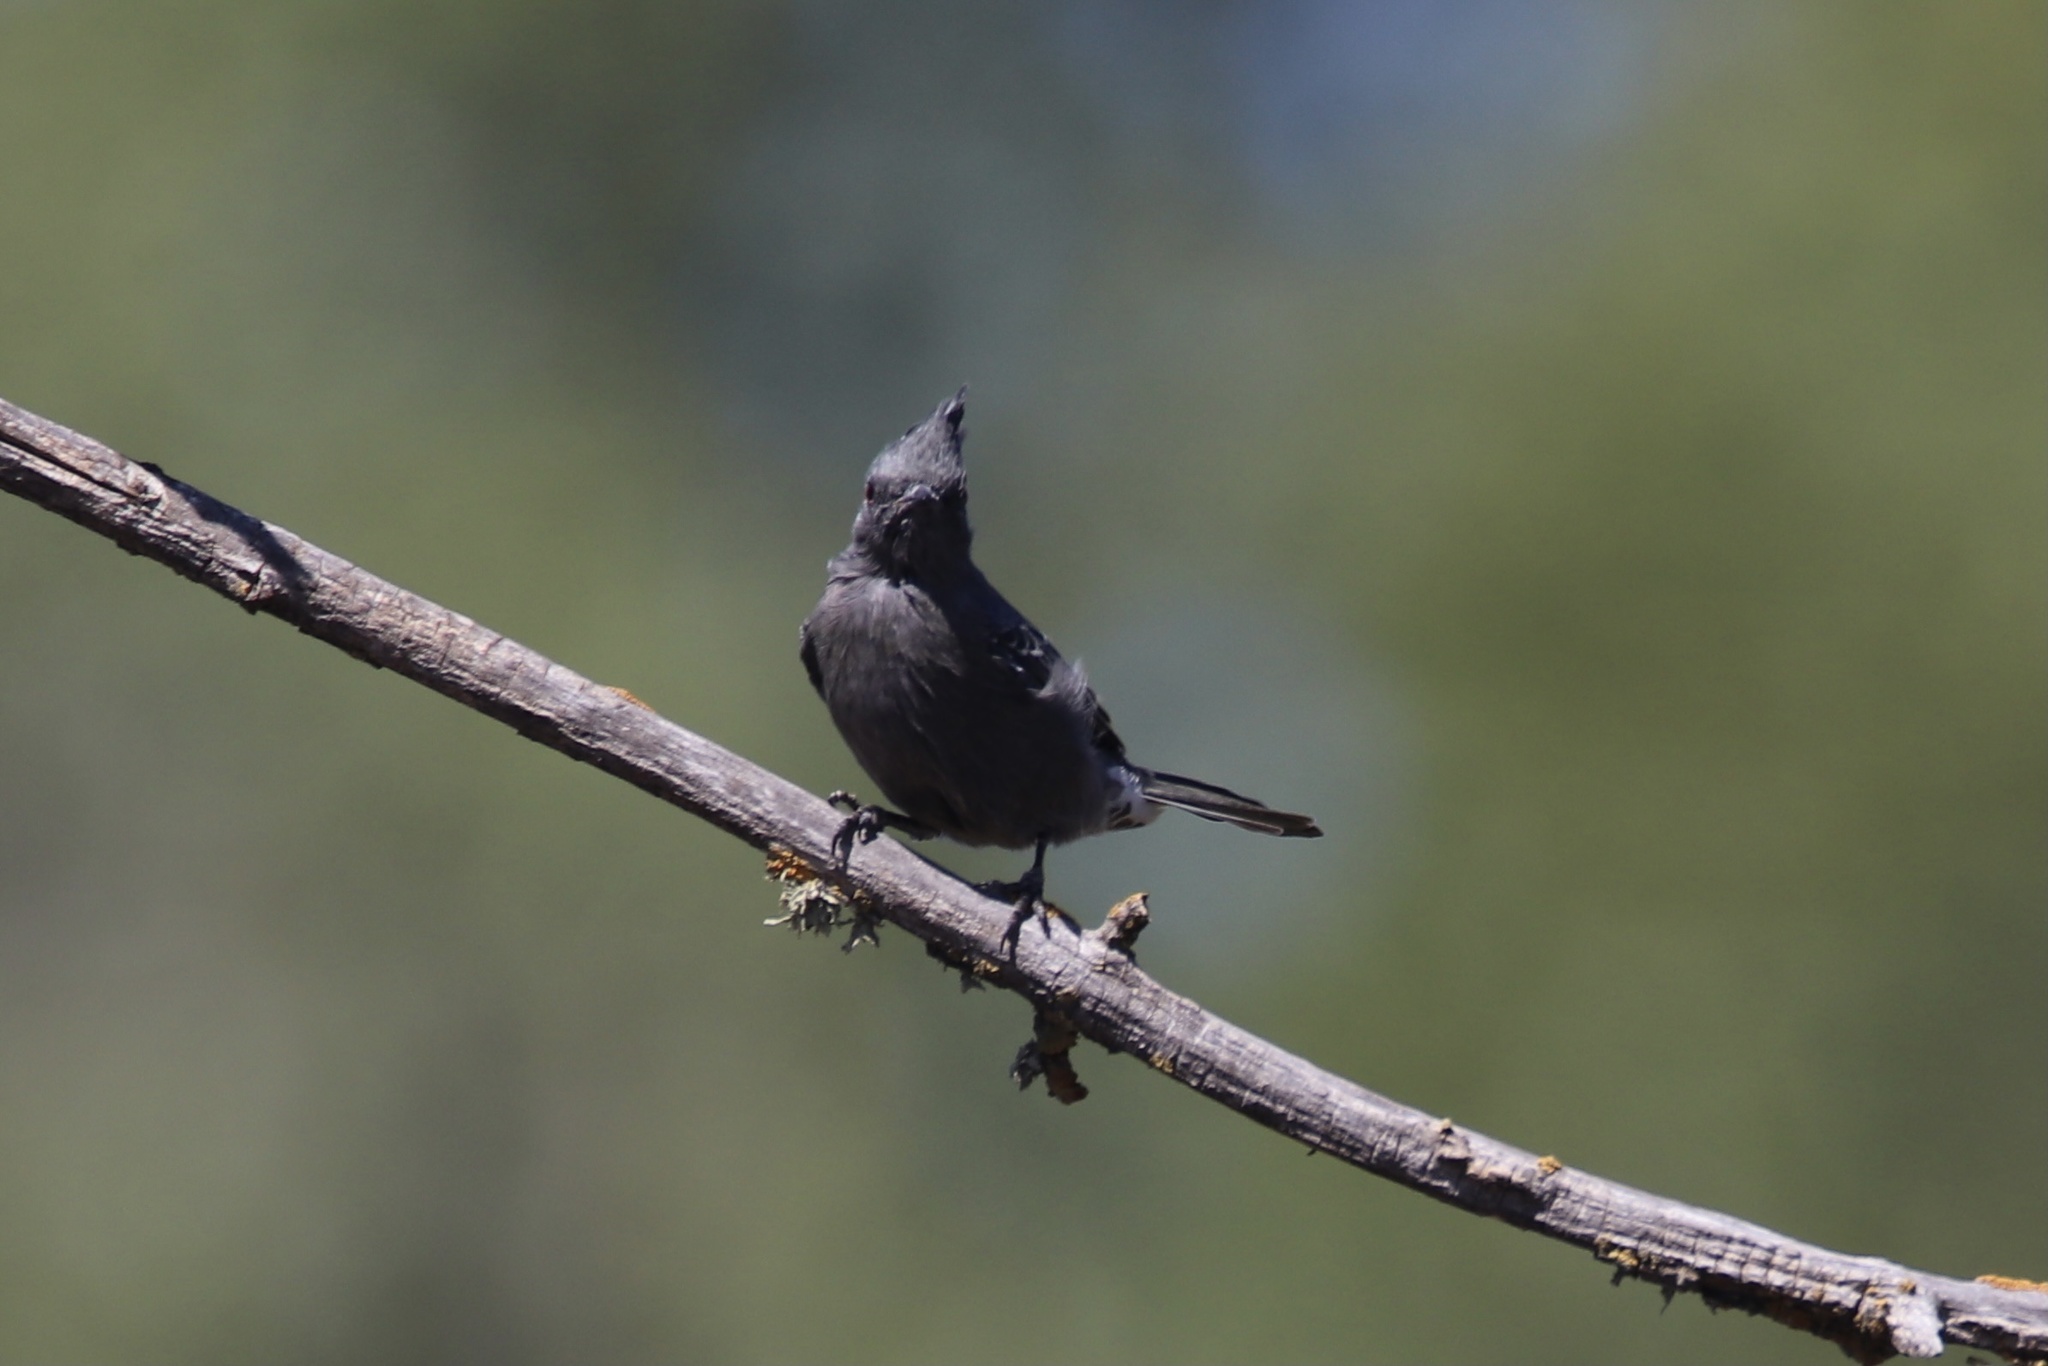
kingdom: Animalia
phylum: Chordata
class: Aves
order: Passeriformes
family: Ptilogonatidae
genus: Phainopepla
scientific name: Phainopepla nitens
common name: Phainopepla
